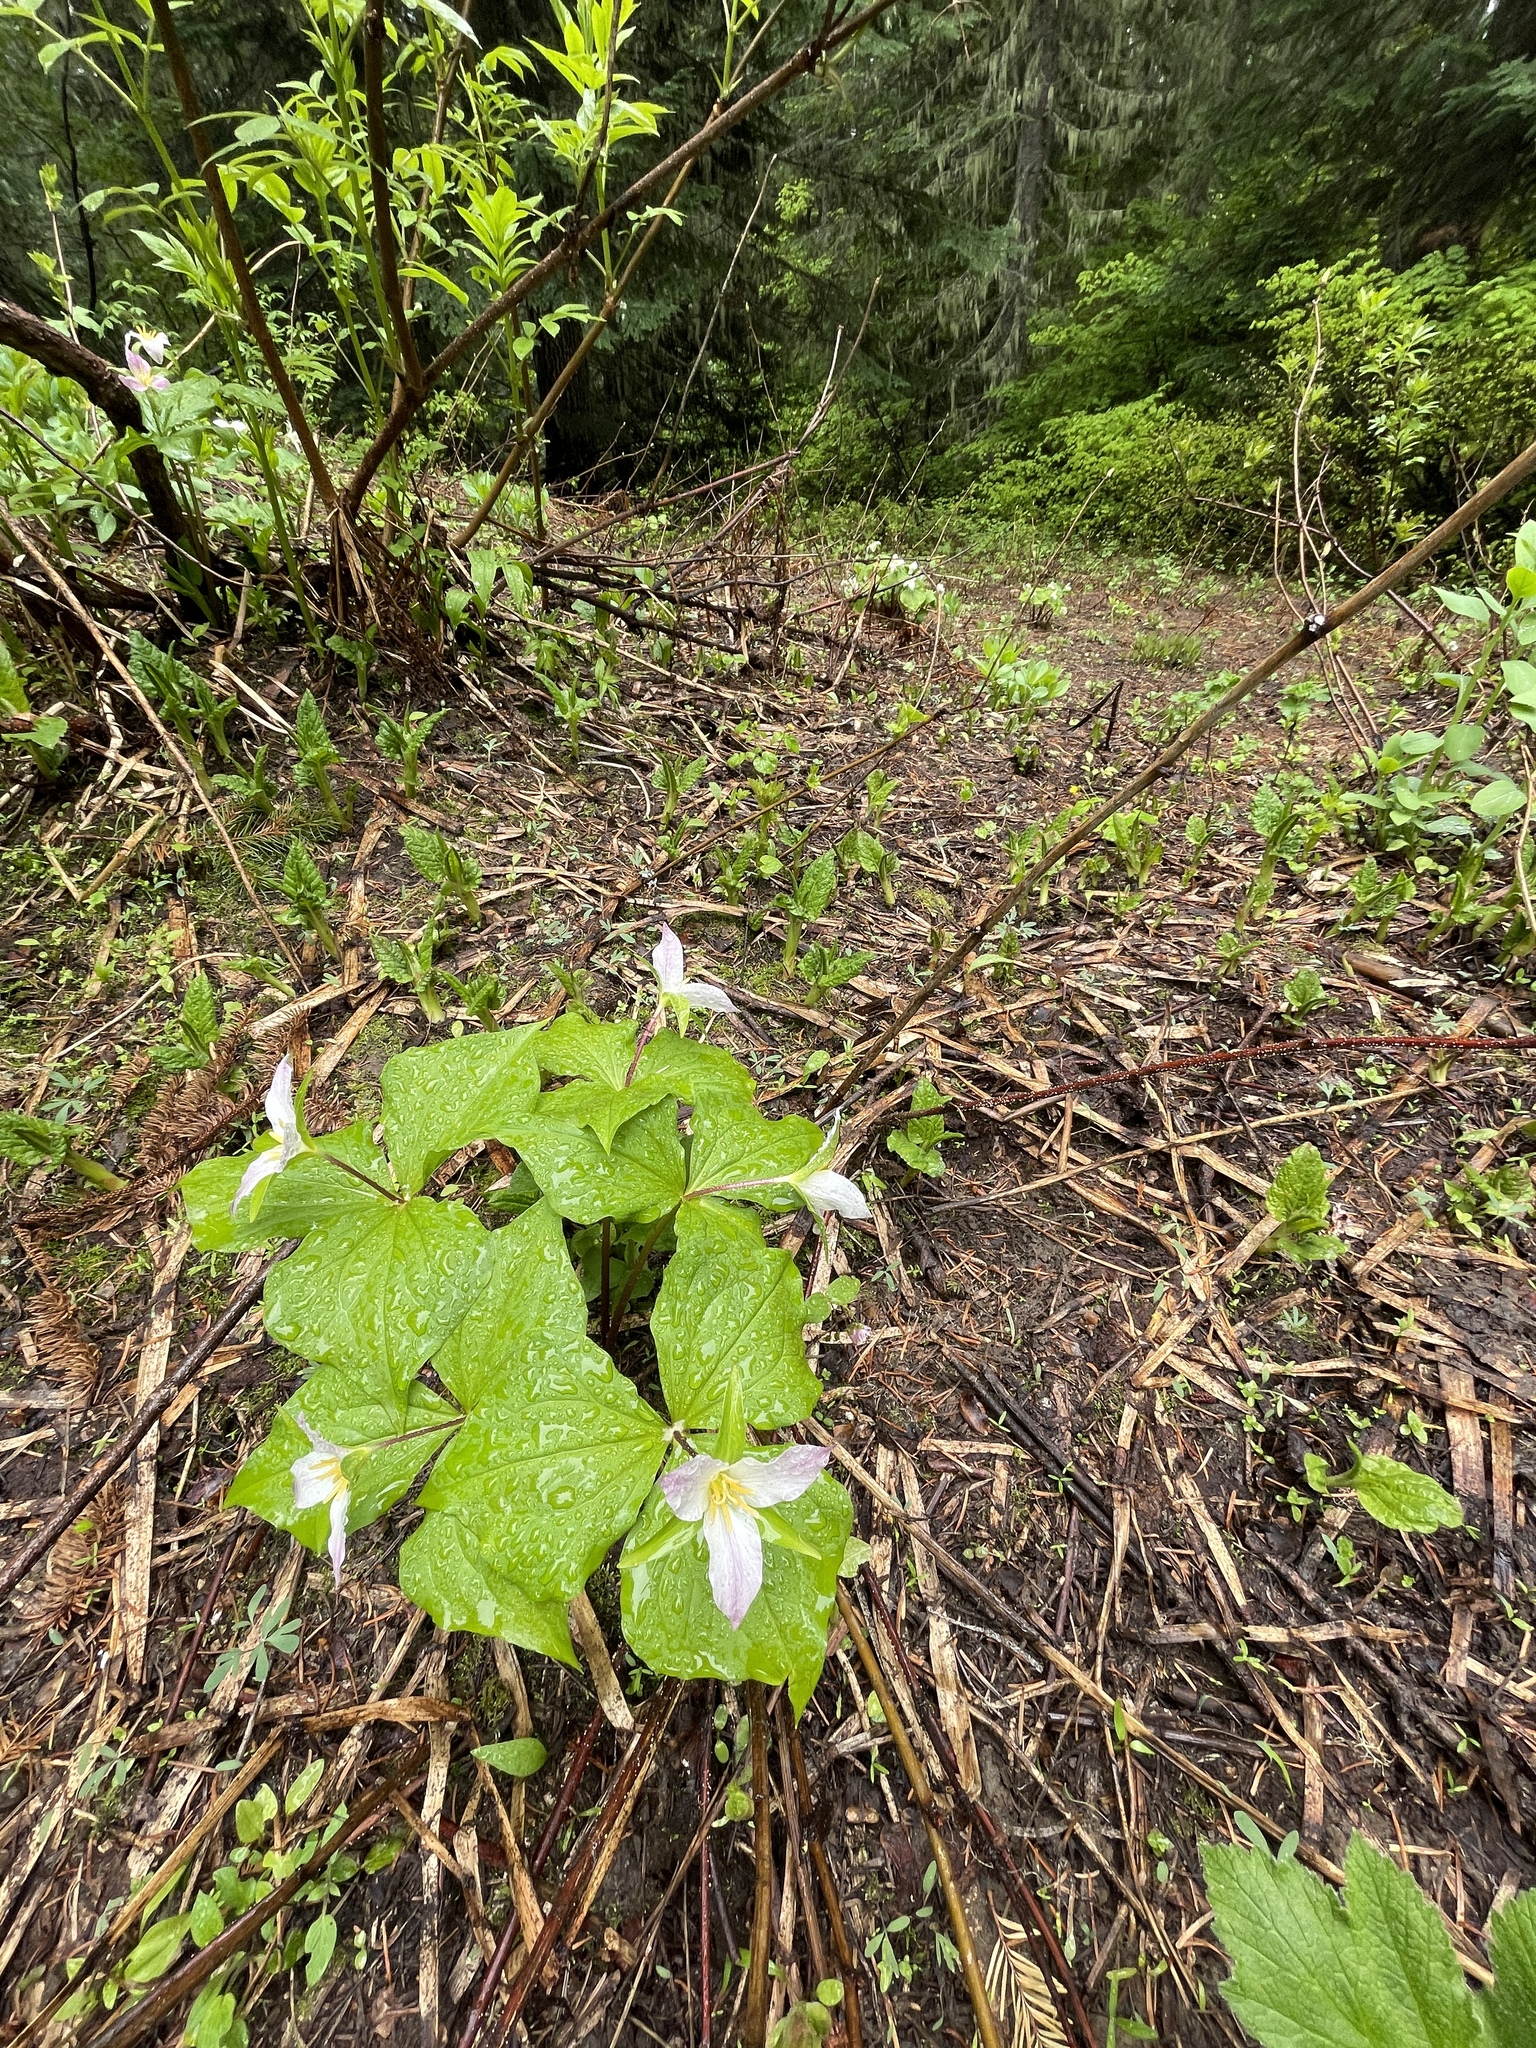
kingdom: Plantae
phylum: Tracheophyta
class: Liliopsida
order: Liliales
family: Melanthiaceae
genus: Trillium
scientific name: Trillium ovatum
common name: Pacific trillium
